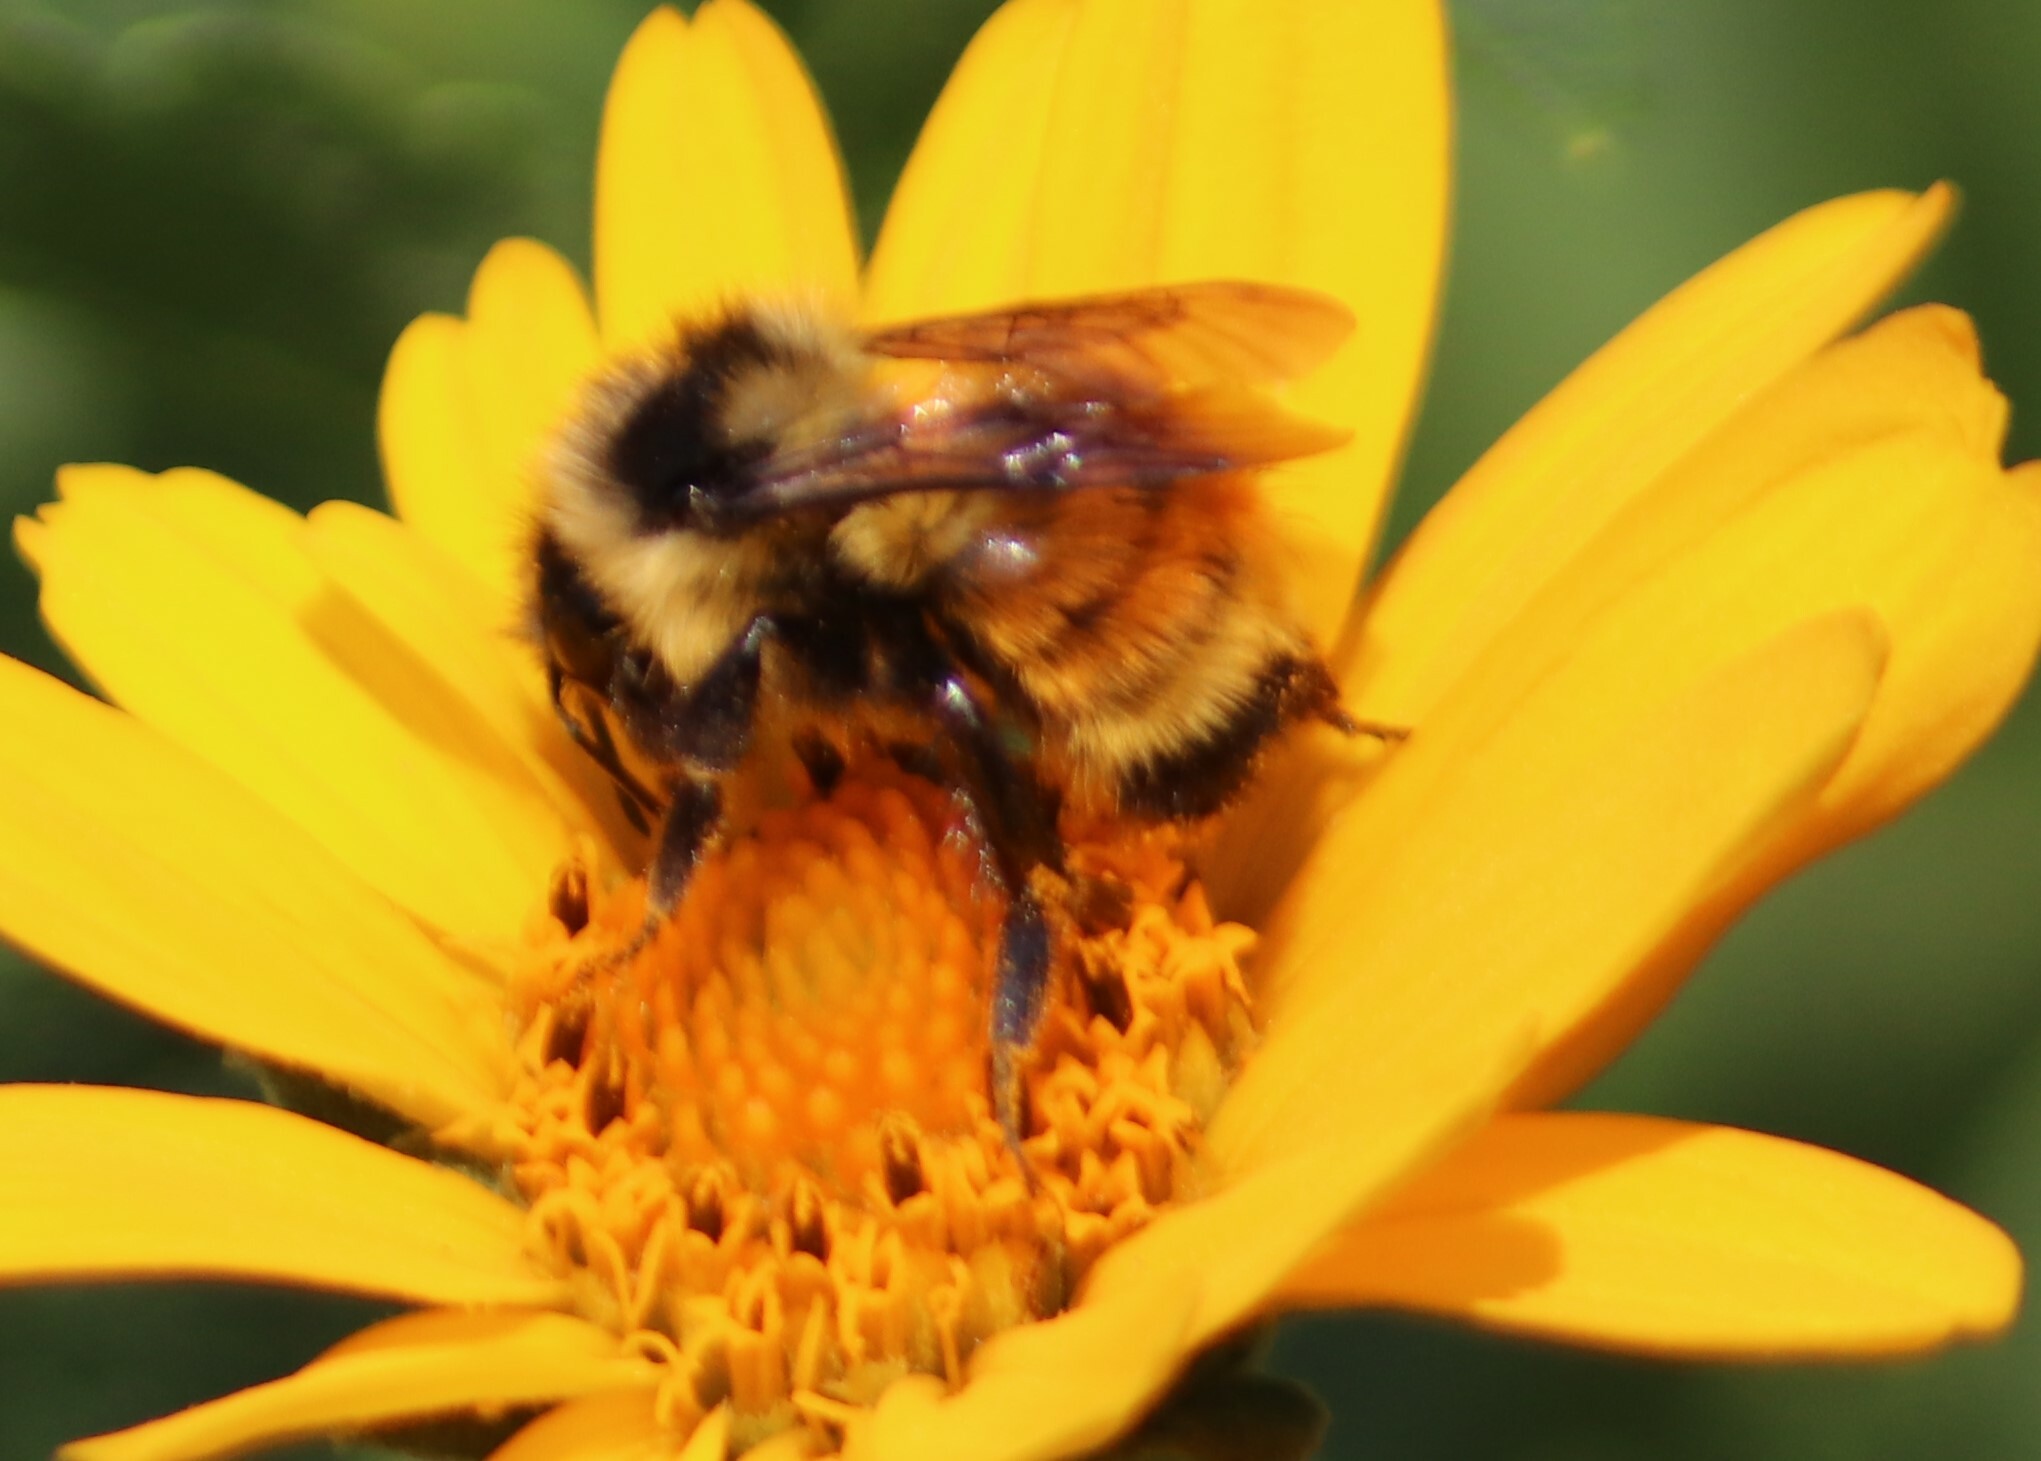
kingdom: Animalia
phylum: Arthropoda
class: Insecta
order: Hymenoptera
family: Apidae
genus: Bombus
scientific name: Bombus ternarius
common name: Tri-colored bumble bee
